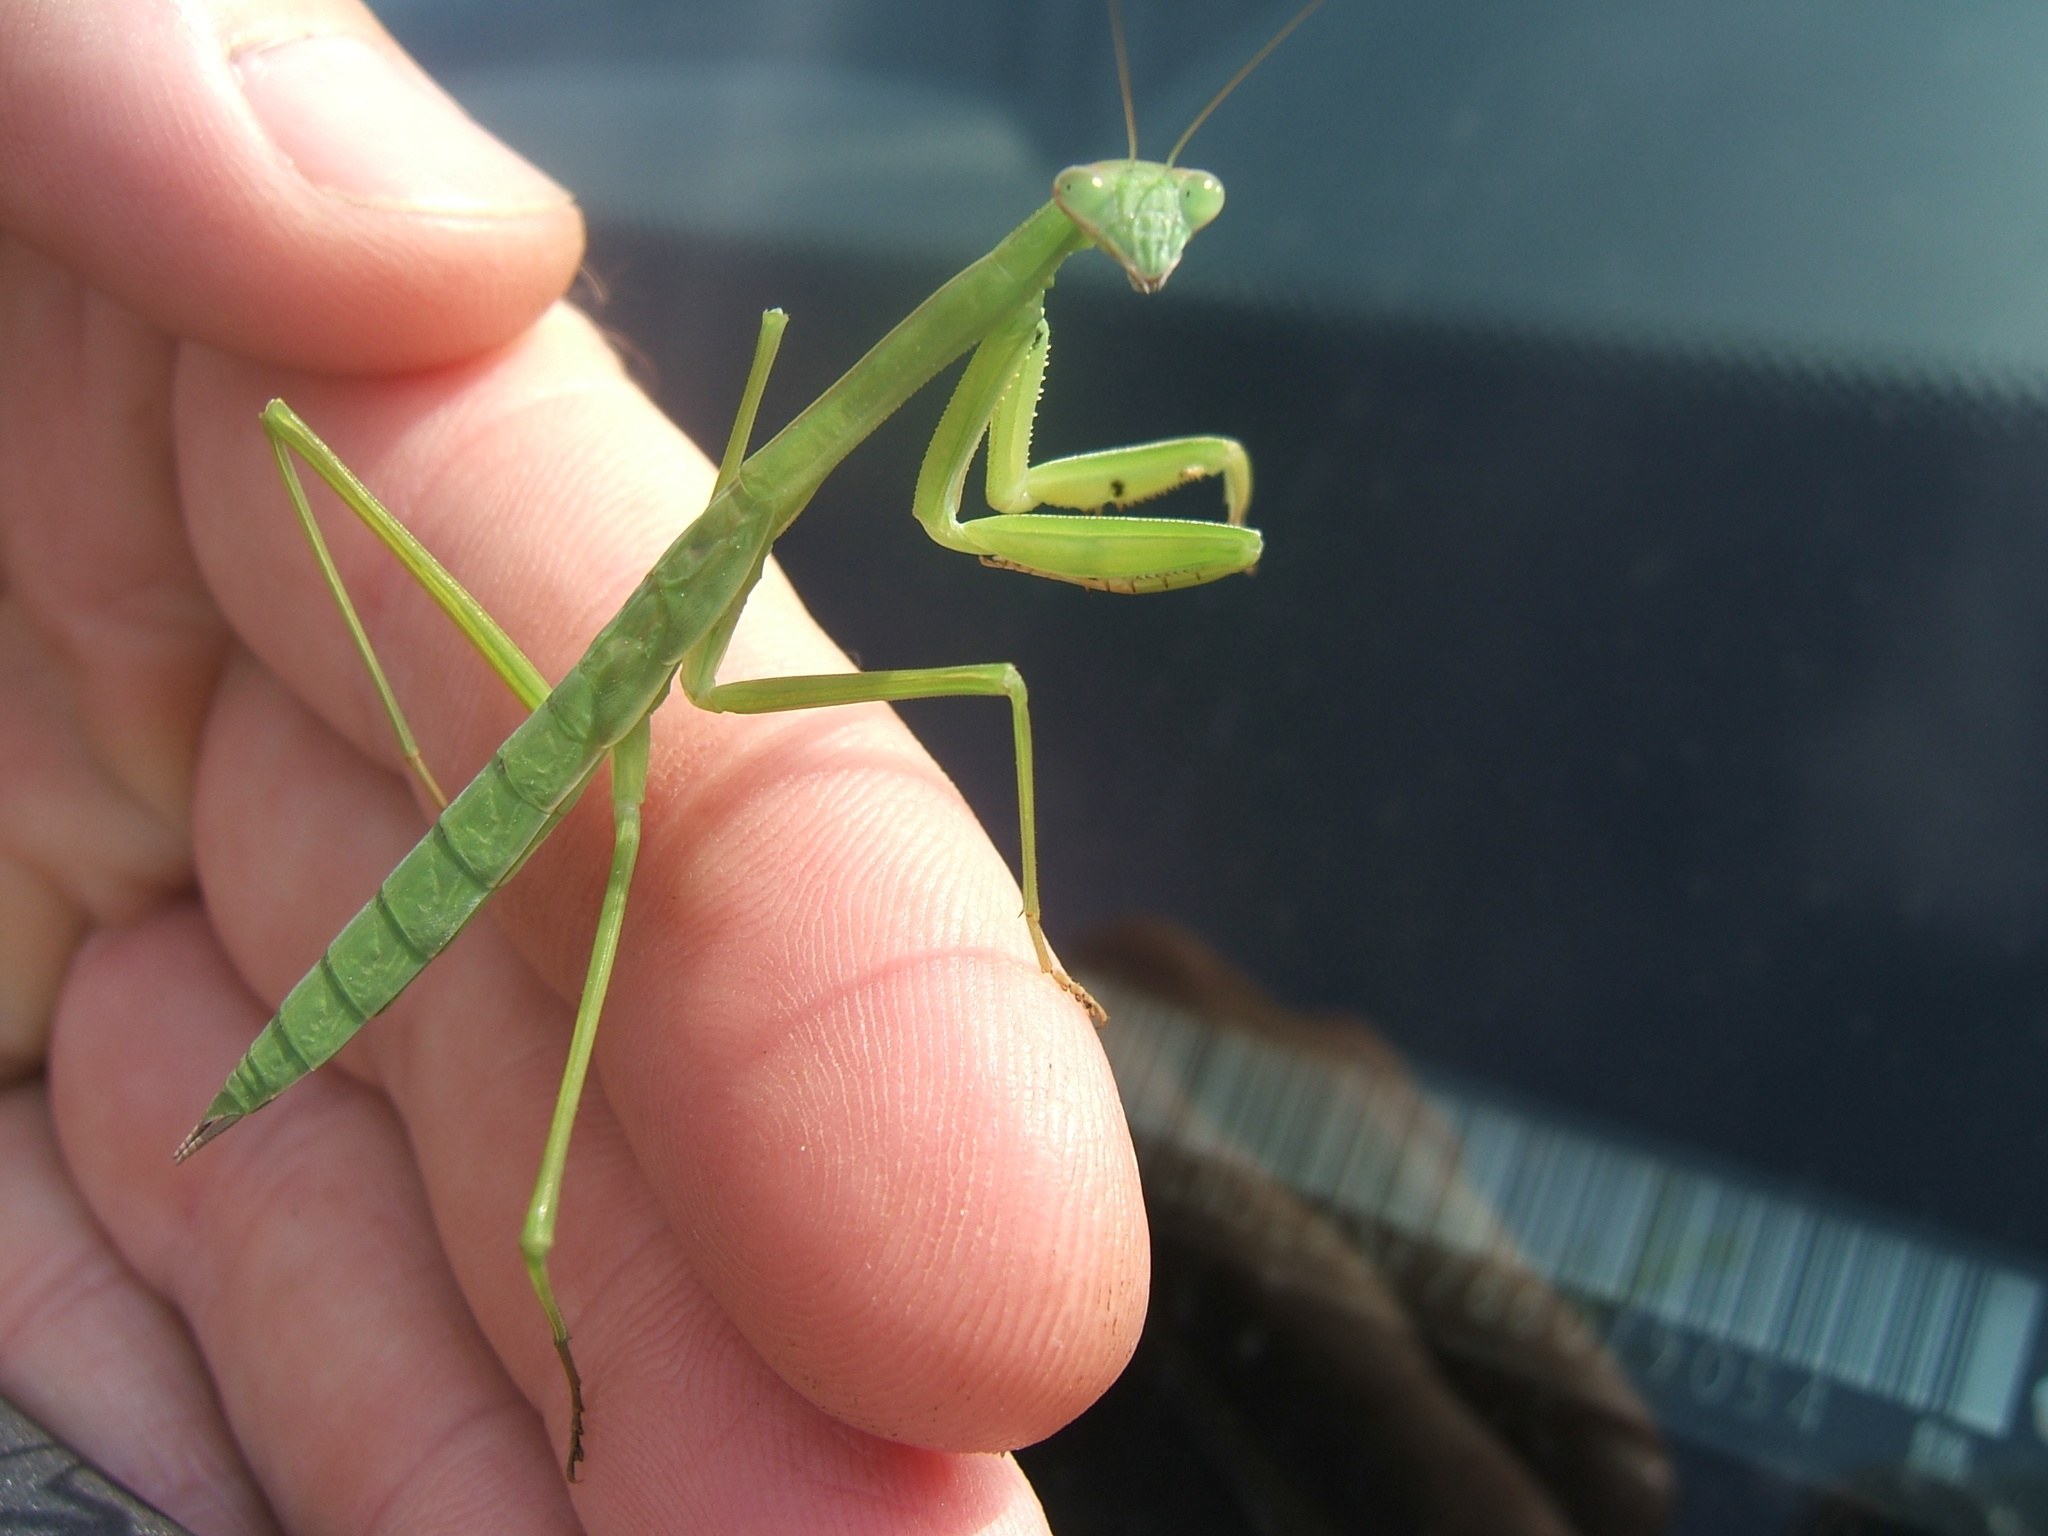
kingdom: Animalia
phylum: Arthropoda
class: Insecta
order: Mantodea
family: Mantidae
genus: Mantis
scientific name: Mantis religiosa
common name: Praying mantis
